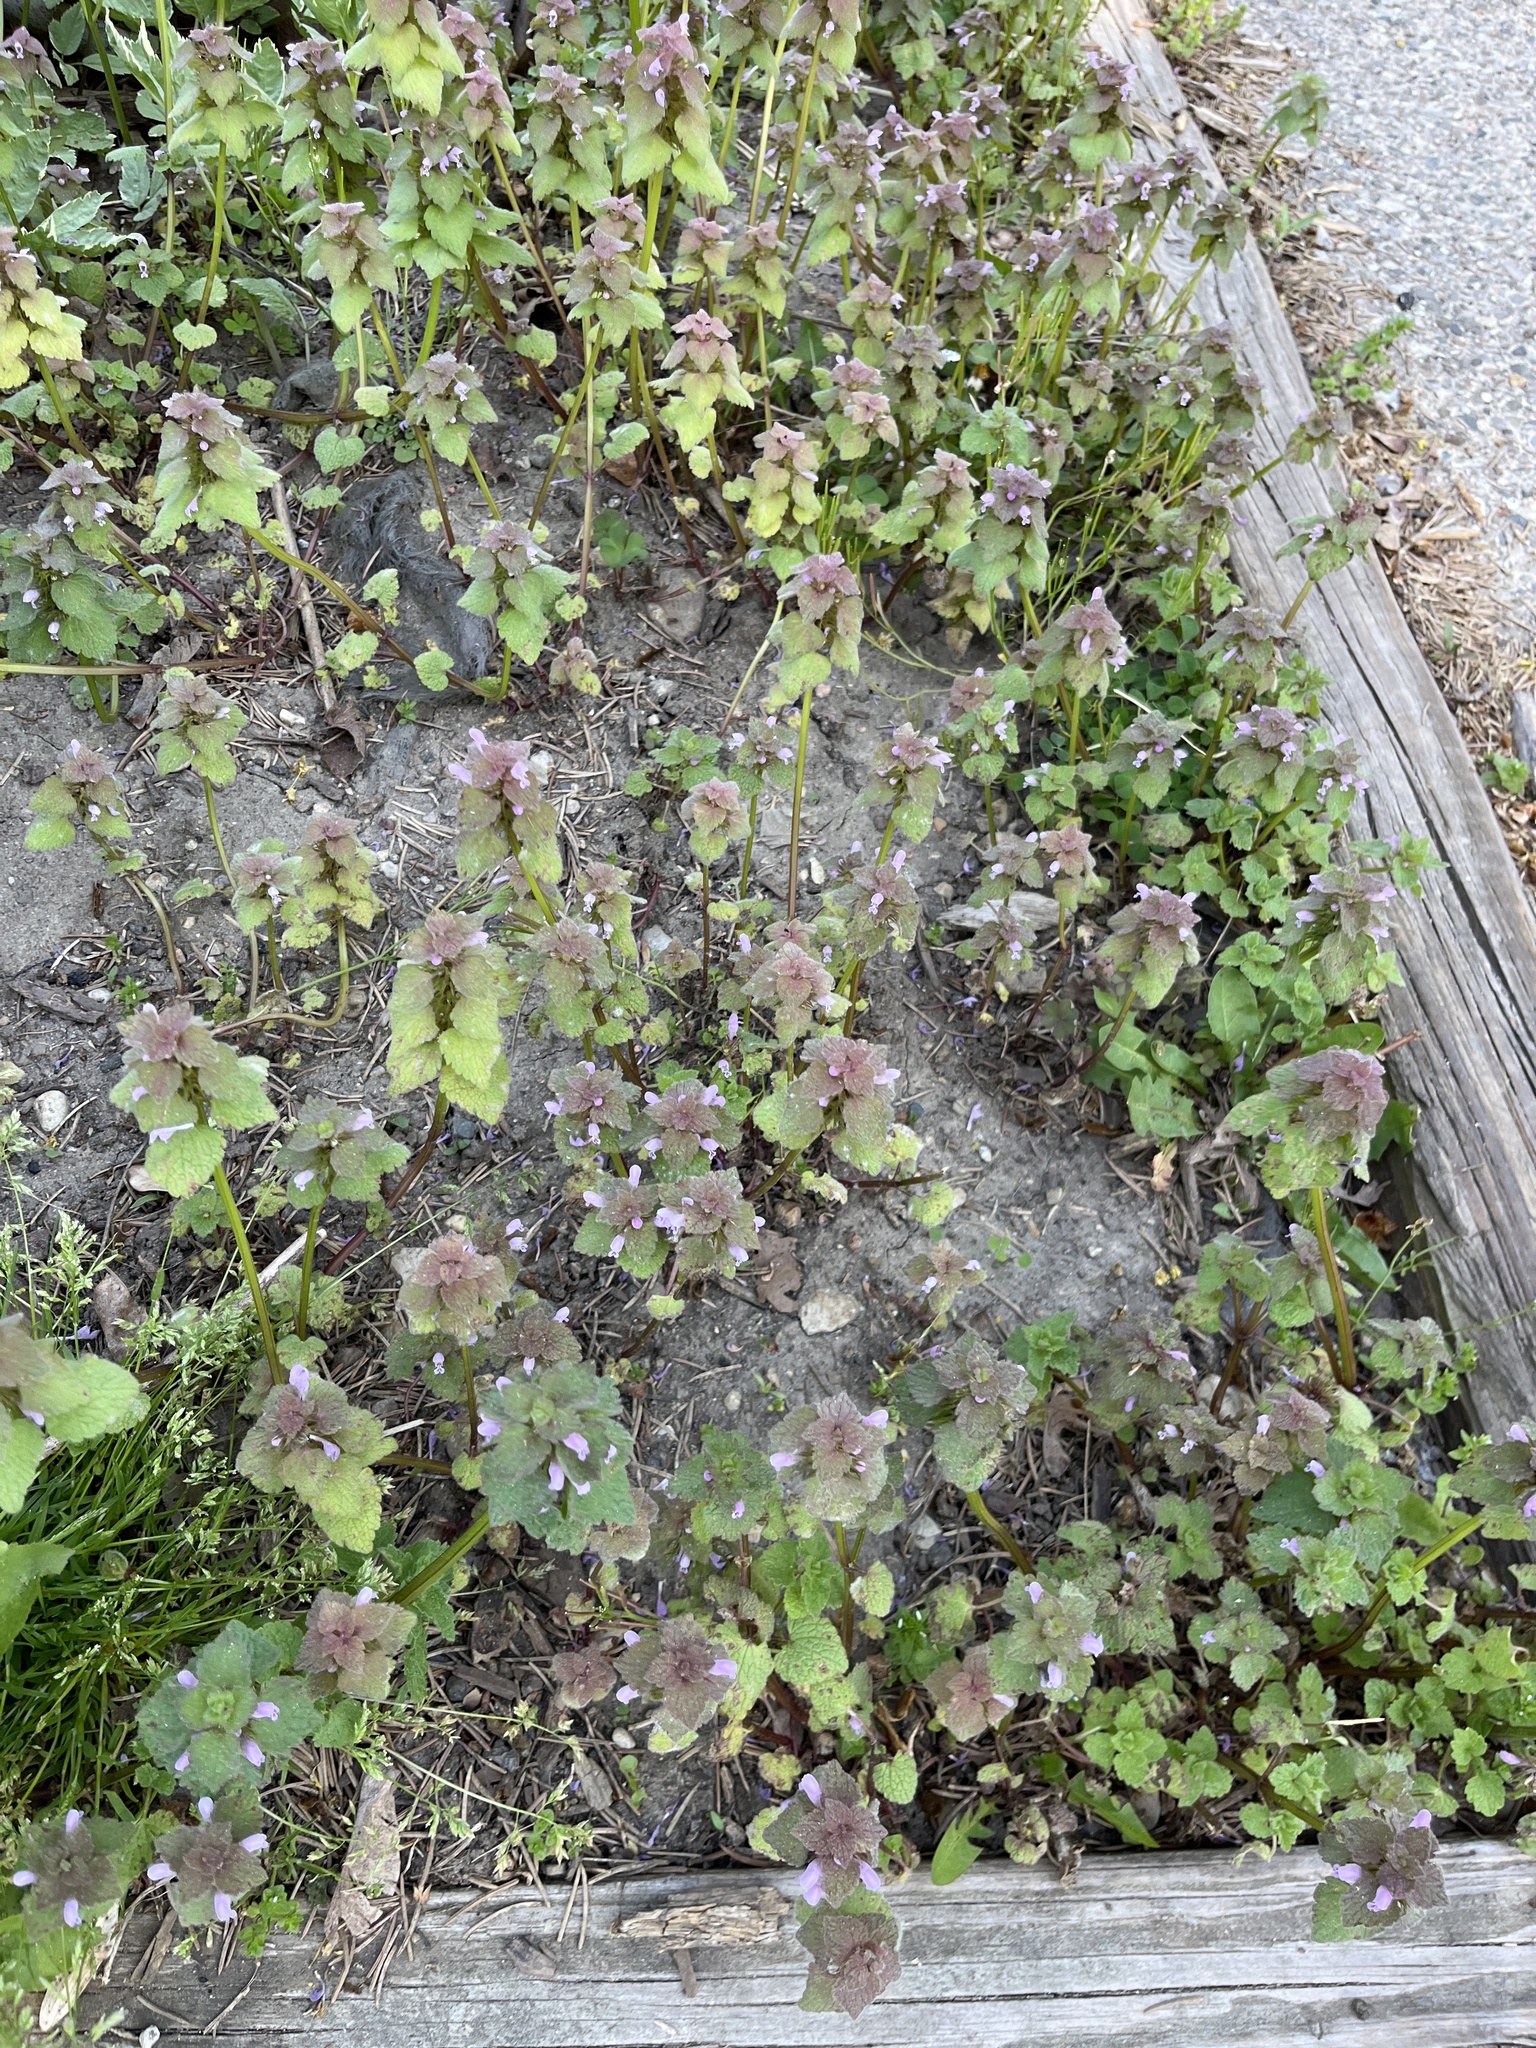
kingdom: Plantae
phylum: Tracheophyta
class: Magnoliopsida
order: Lamiales
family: Lamiaceae
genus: Lamium
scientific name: Lamium purpureum
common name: Red dead-nettle
